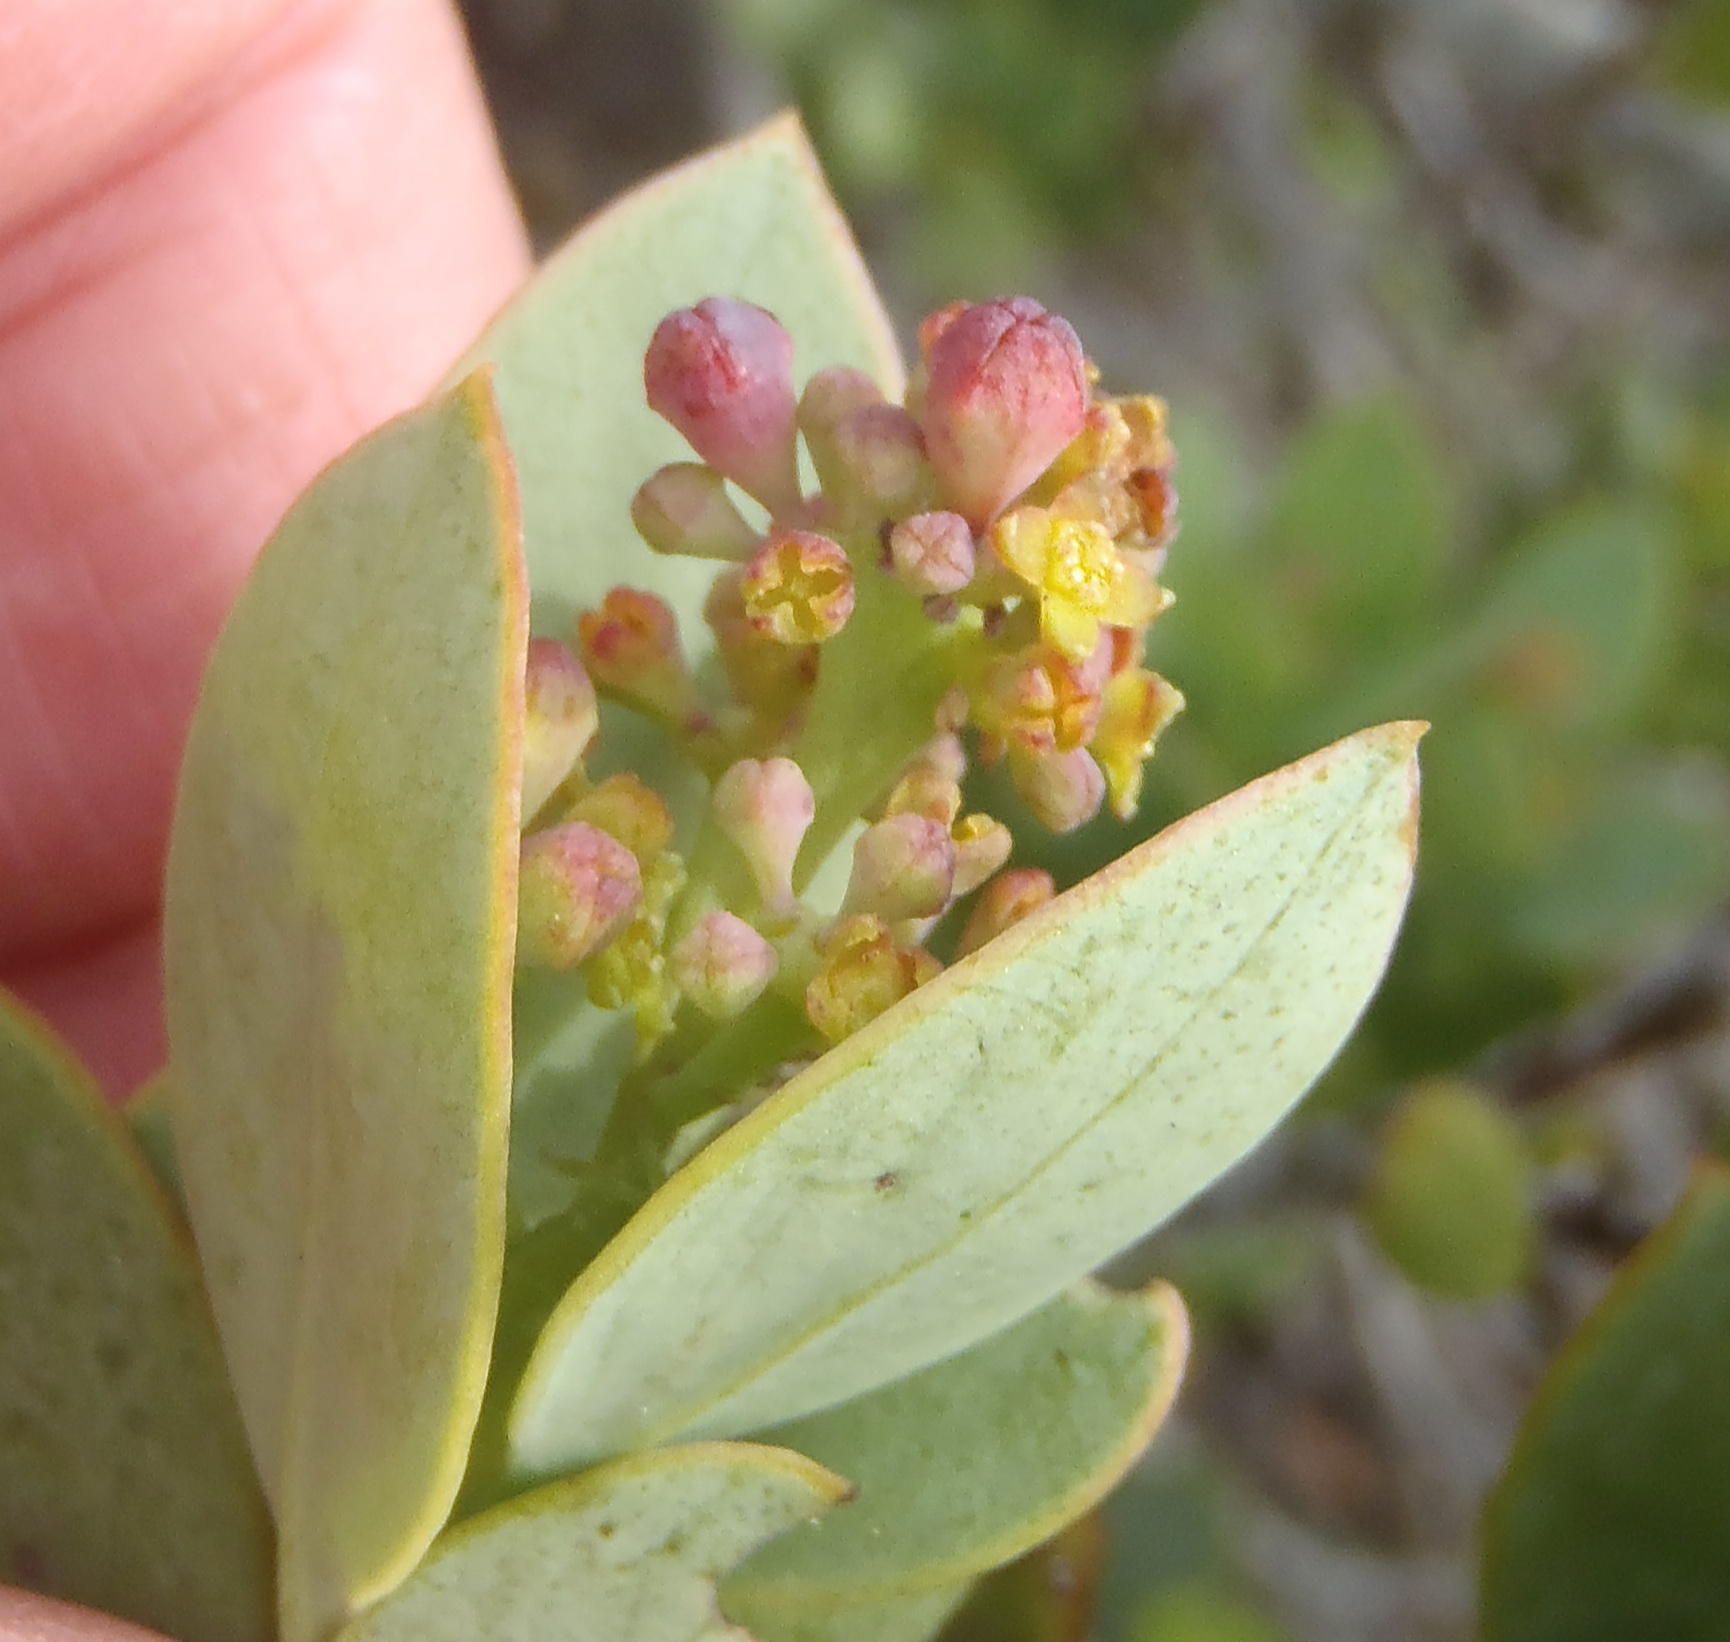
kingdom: Plantae
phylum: Tracheophyta
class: Magnoliopsida
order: Santalales
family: Santalaceae
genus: Osyris
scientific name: Osyris compressa
